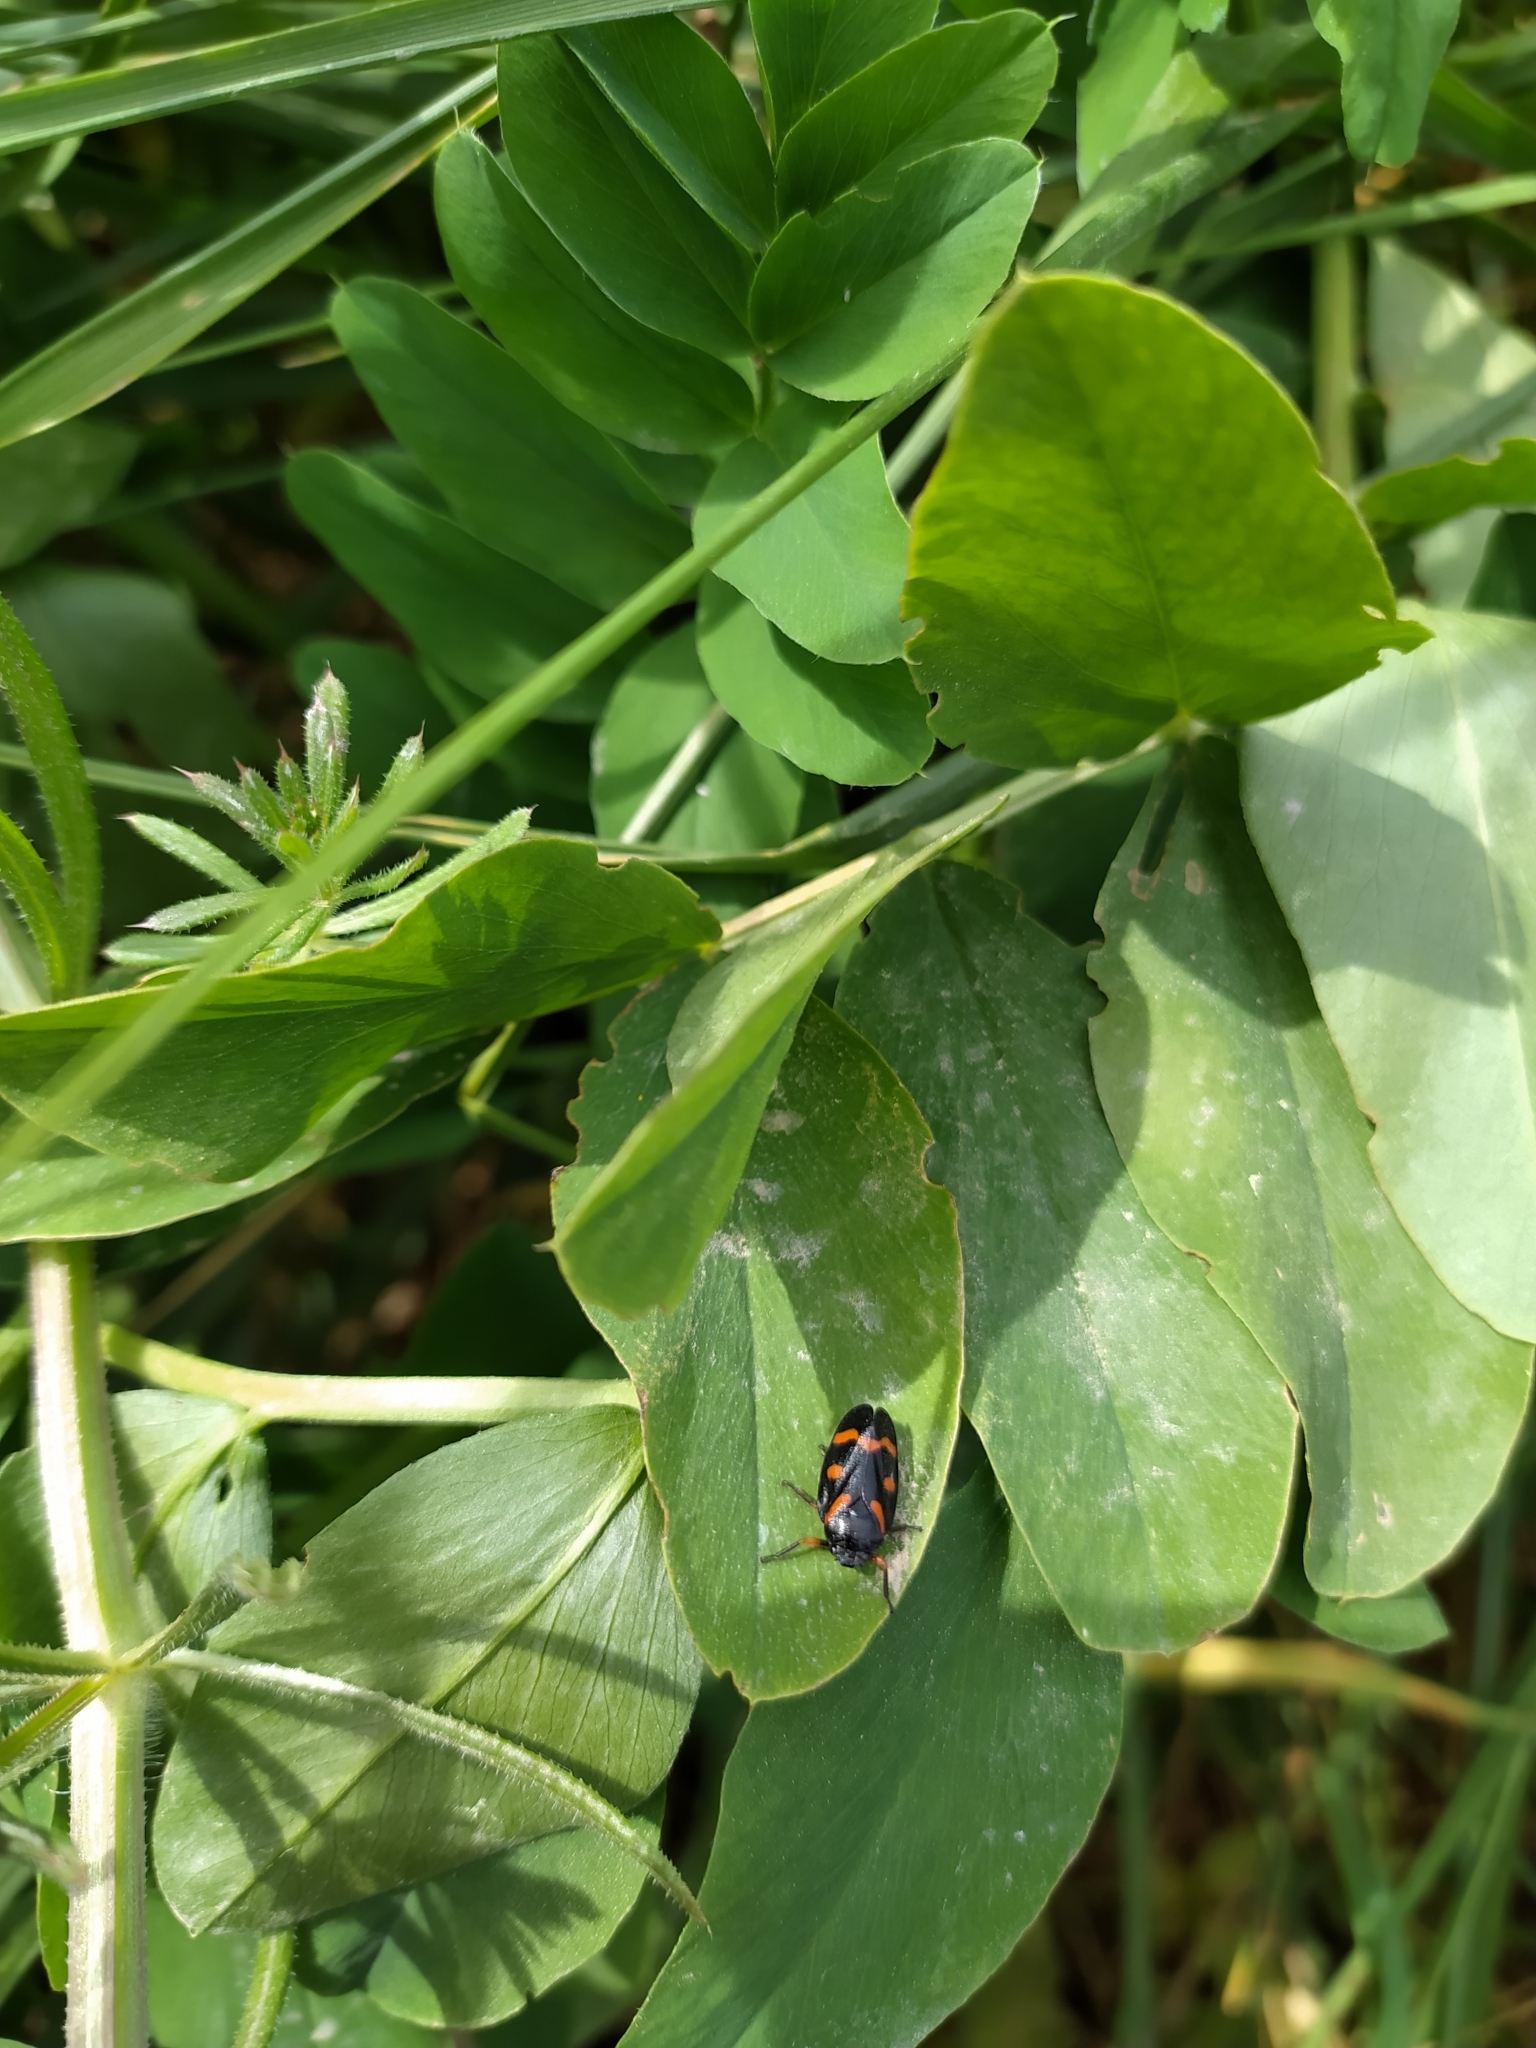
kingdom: Animalia
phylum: Arthropoda
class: Insecta
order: Hemiptera
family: Cercopidae
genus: Cercopis
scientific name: Cercopis intermedia
